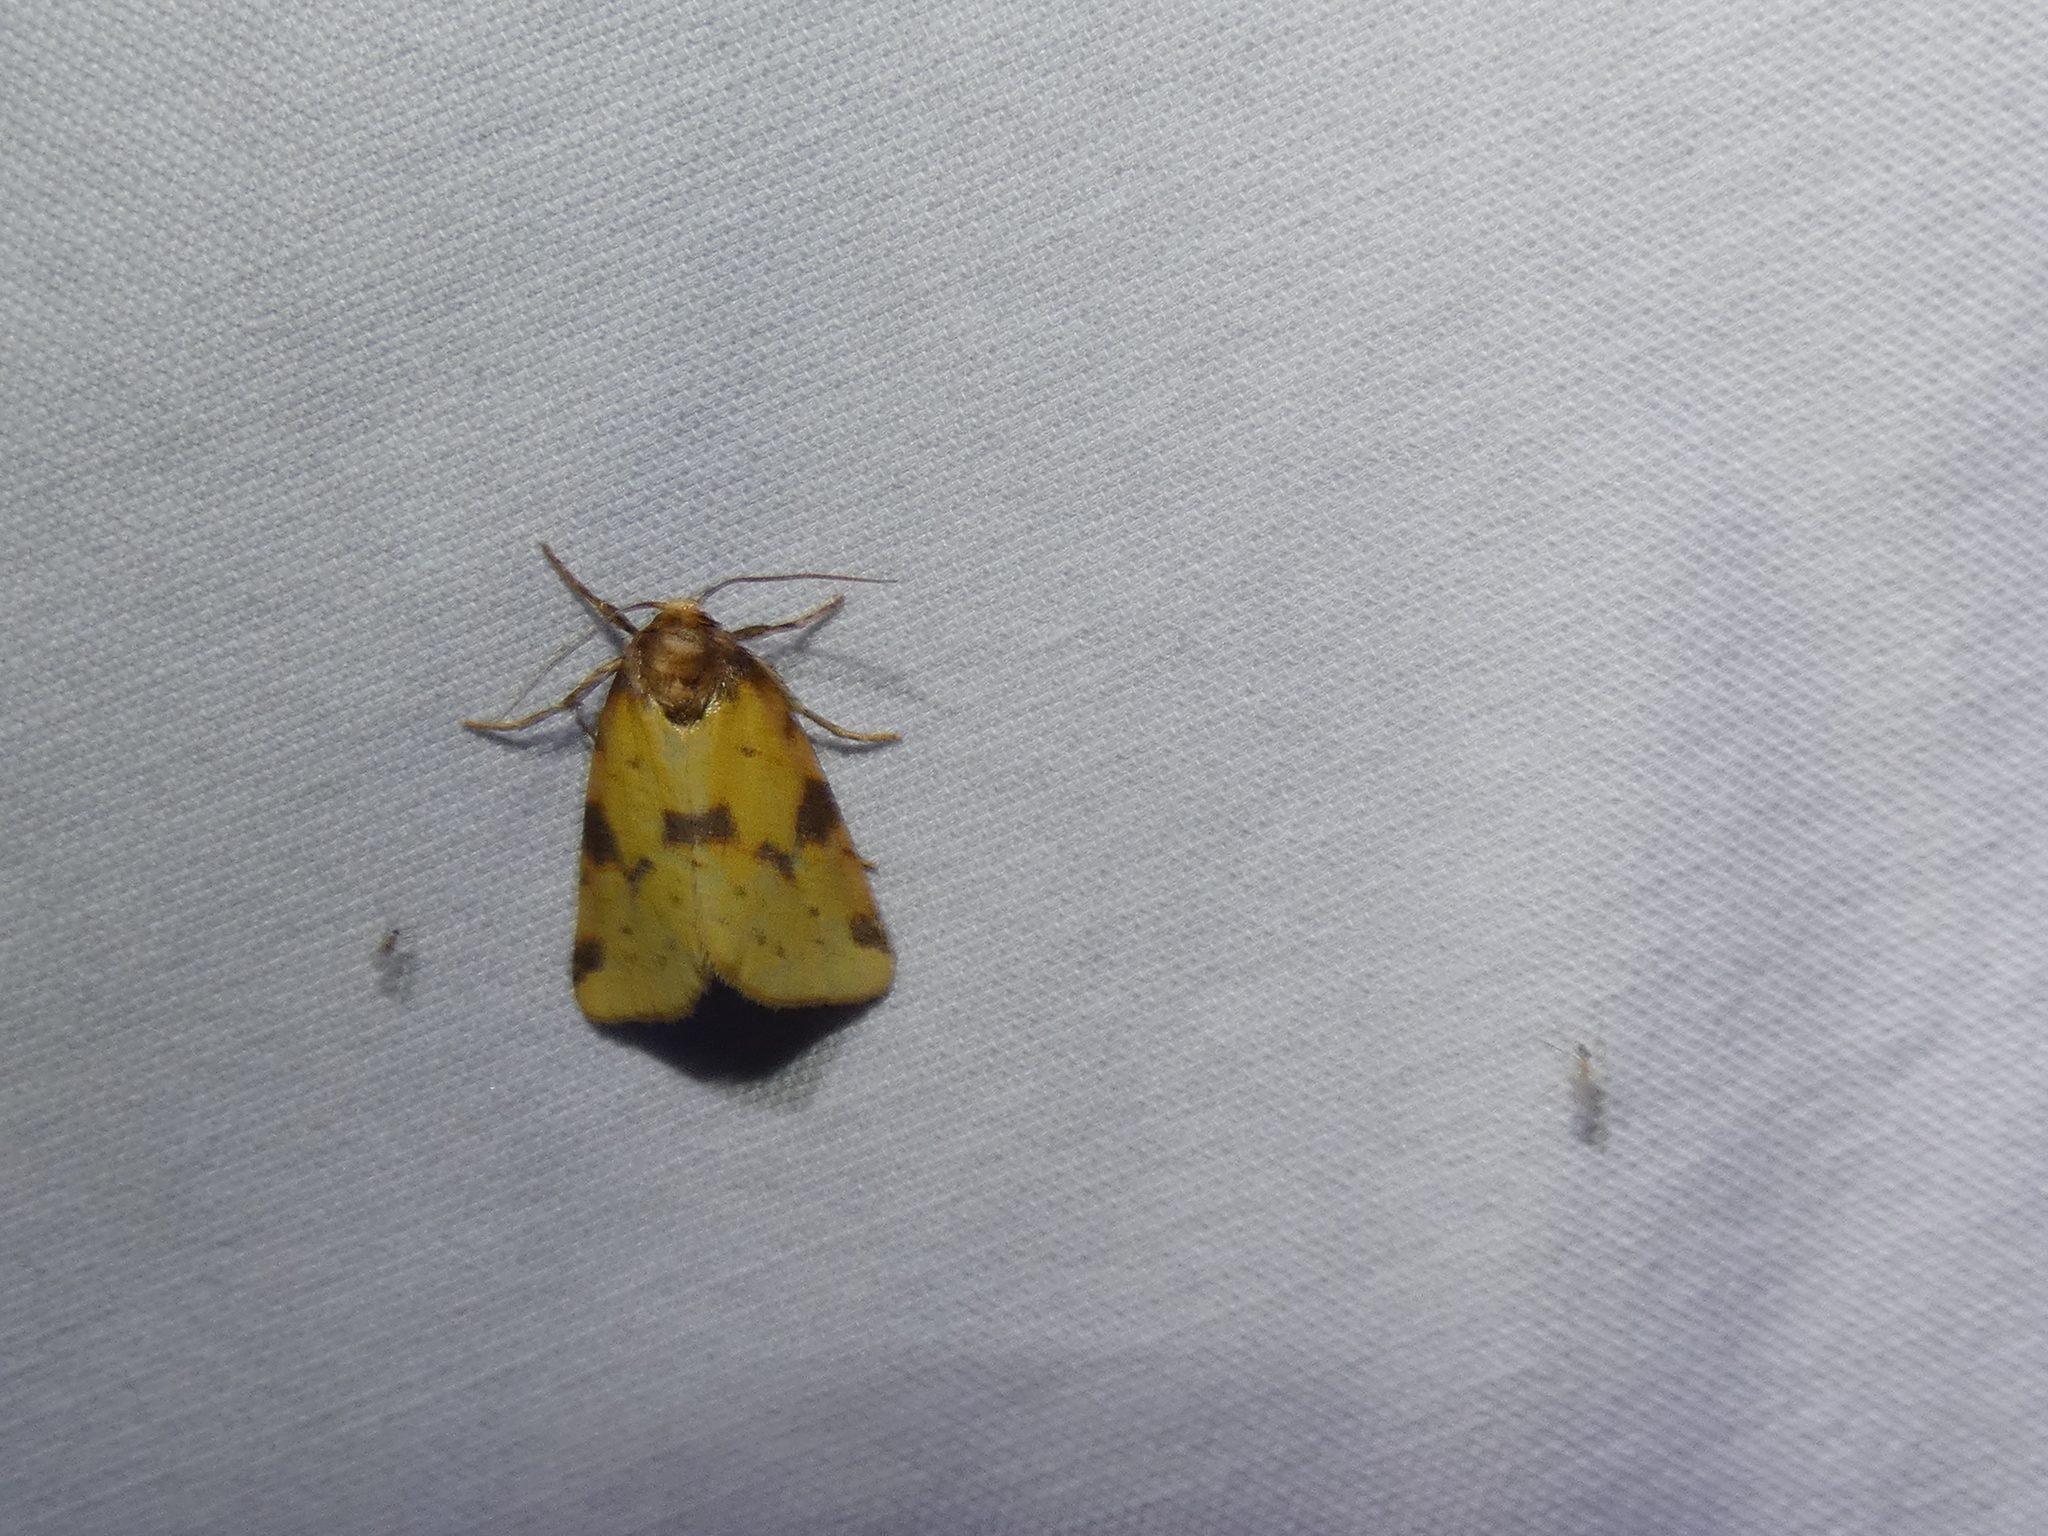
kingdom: Animalia
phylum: Arthropoda
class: Insecta
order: Lepidoptera
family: Noctuidae
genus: Azenia
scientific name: Azenia obtusa
